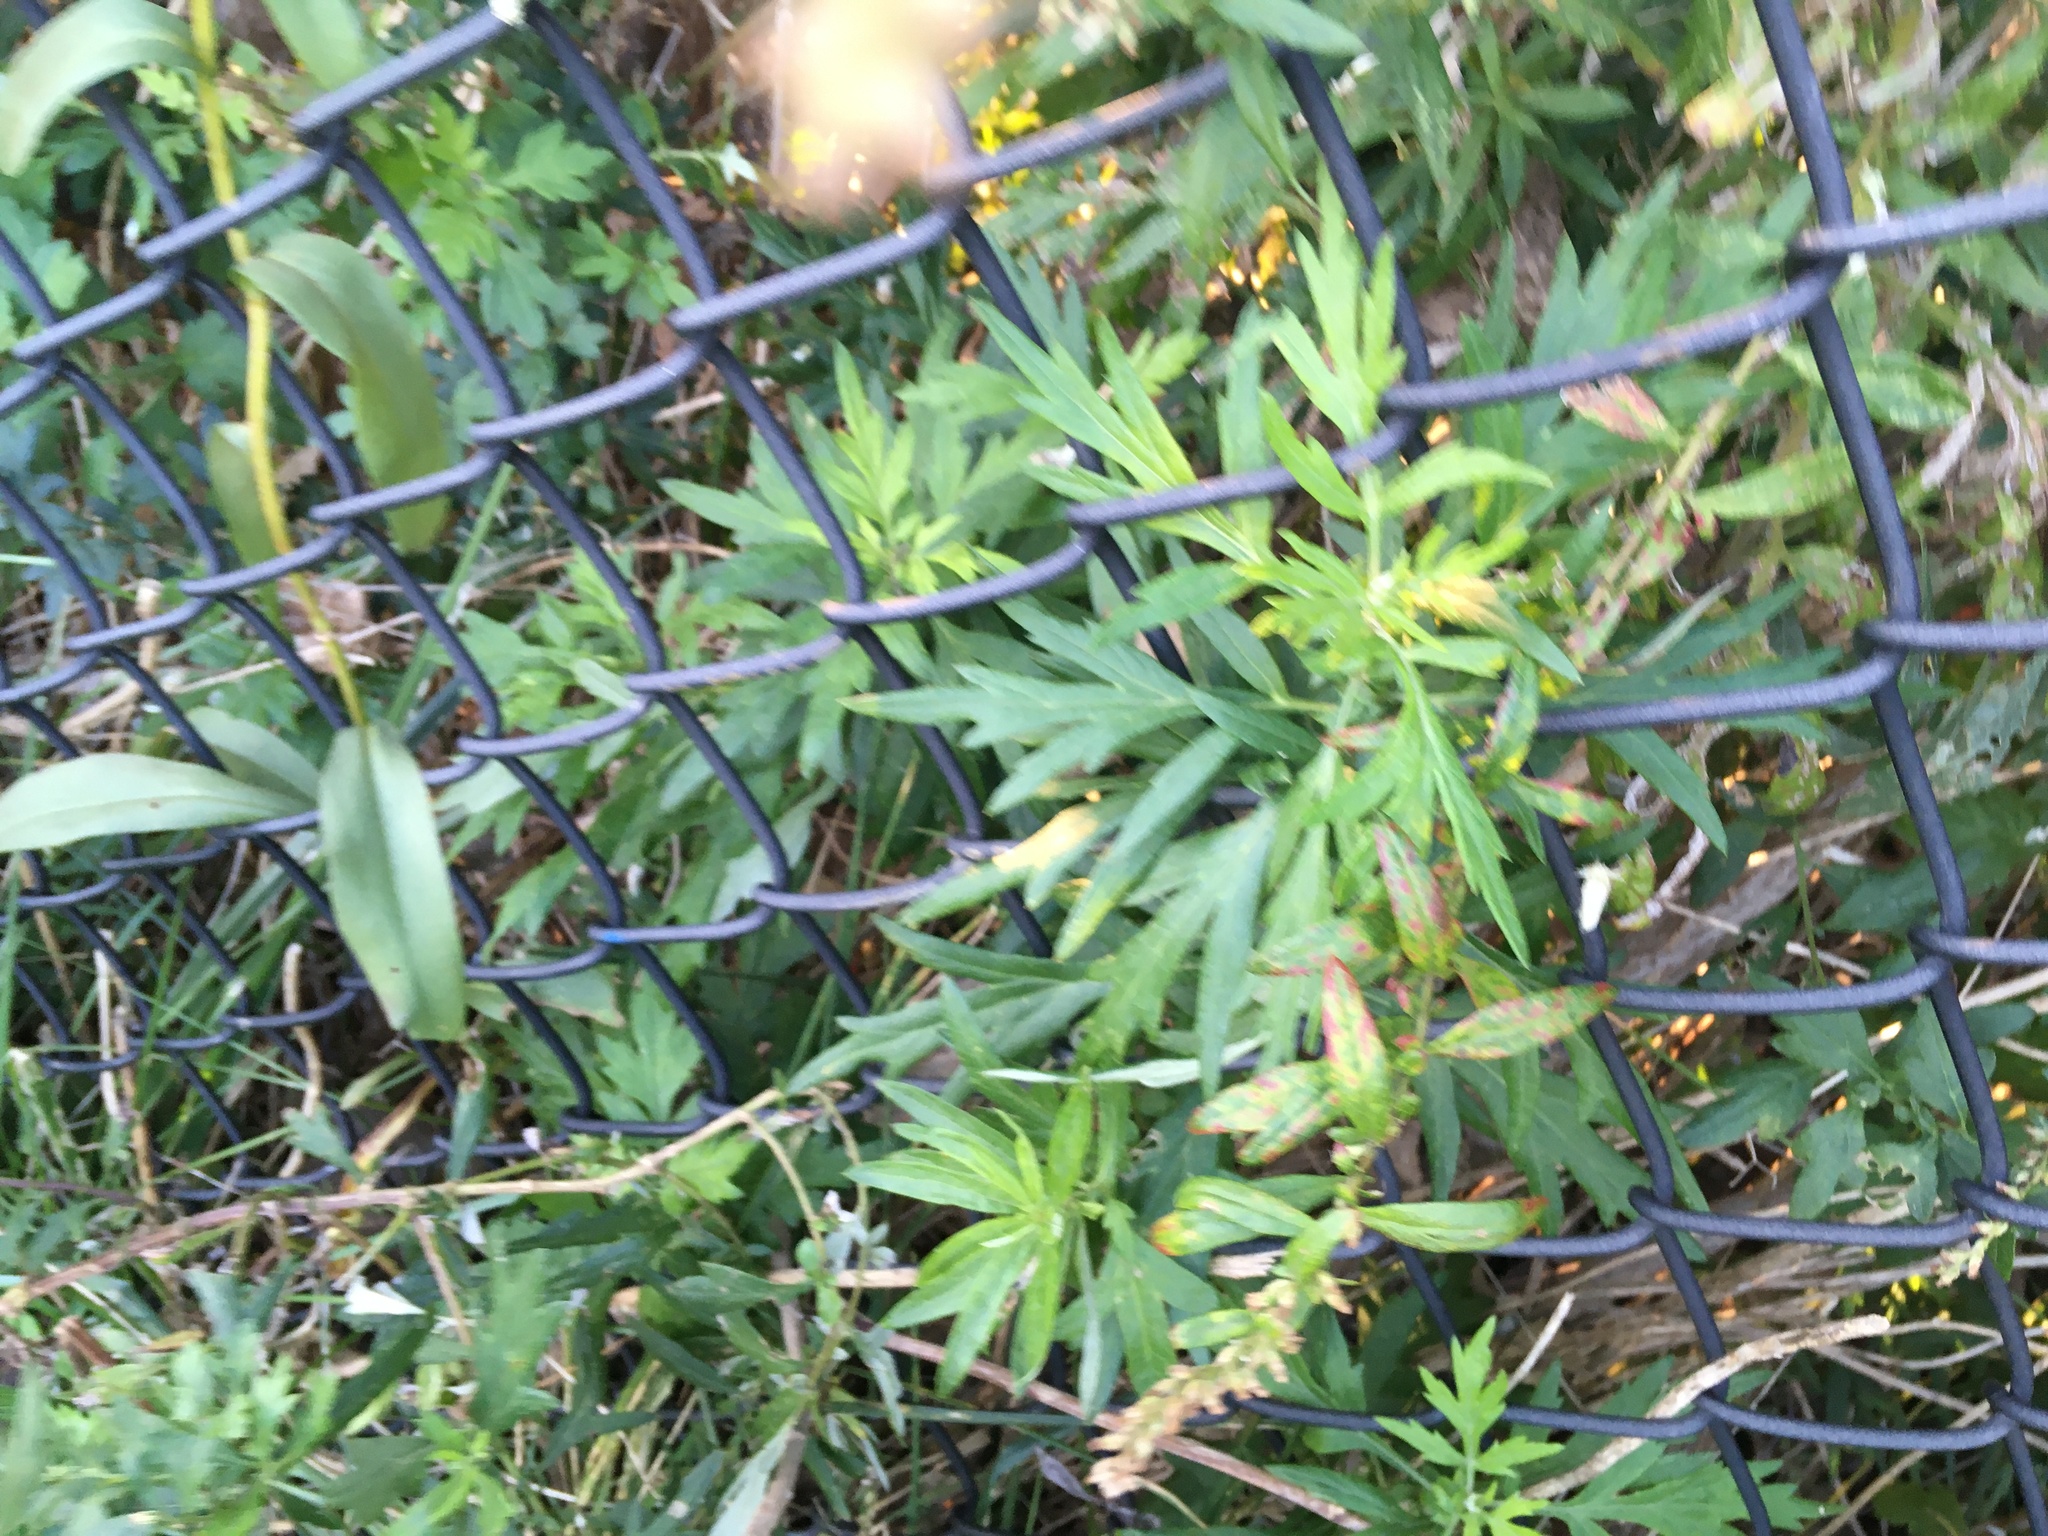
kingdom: Plantae
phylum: Tracheophyta
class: Magnoliopsida
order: Asterales
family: Asteraceae
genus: Artemisia
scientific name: Artemisia vulgaris
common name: Mugwort
